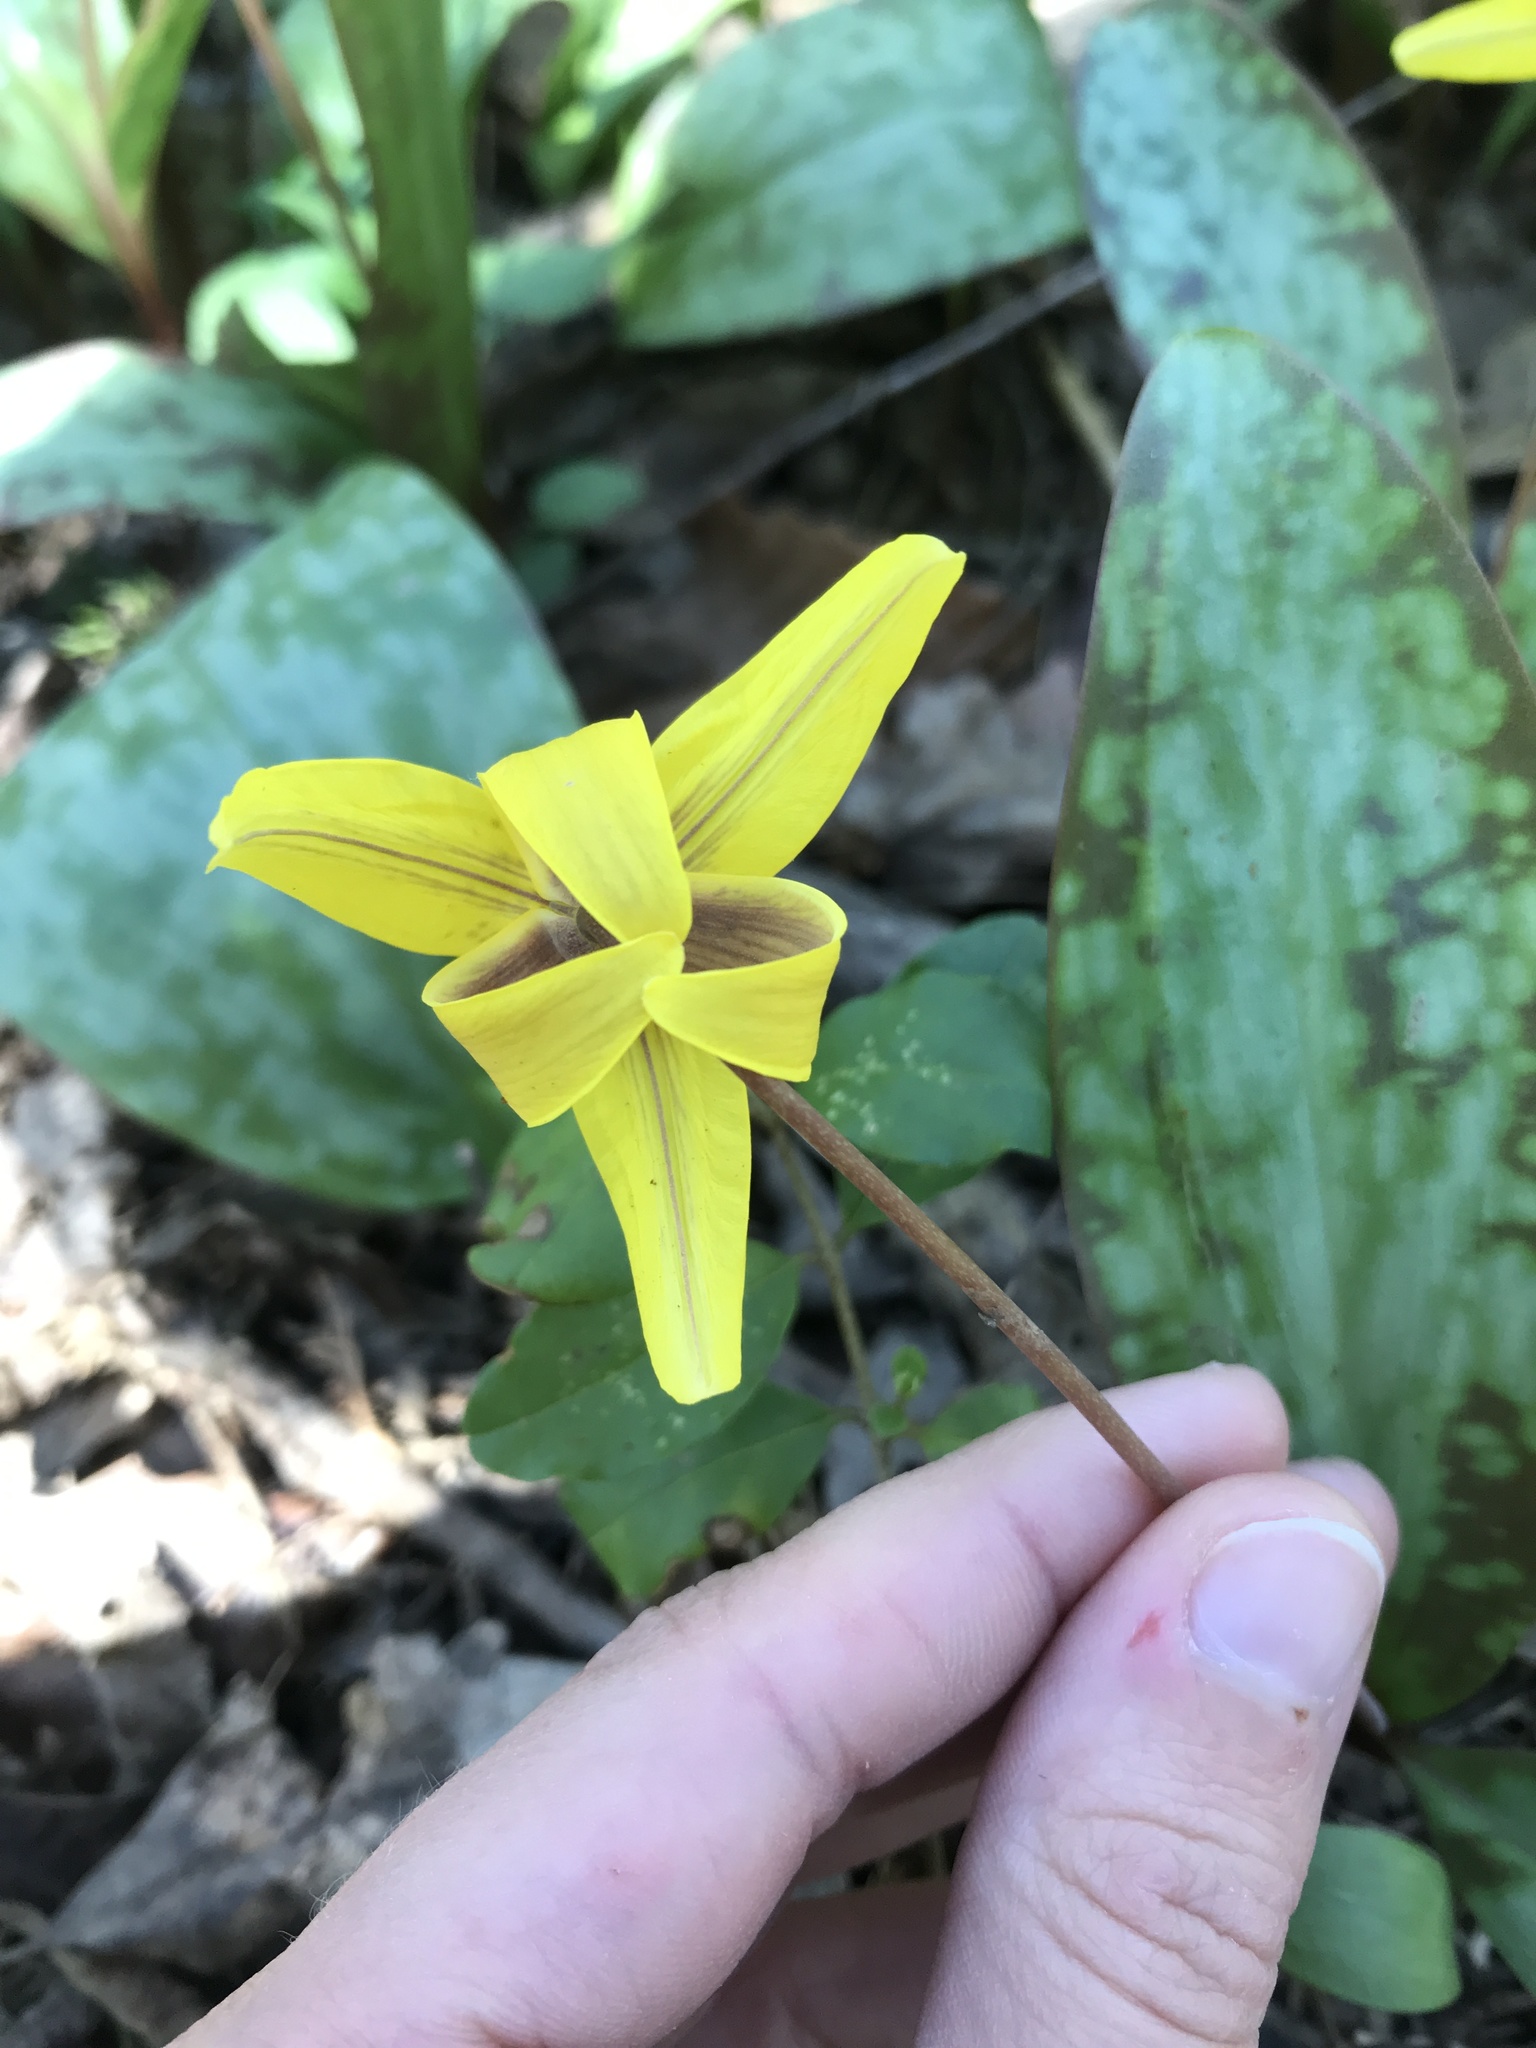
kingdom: Plantae
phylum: Tracheophyta
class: Liliopsida
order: Liliales
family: Liliaceae
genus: Erythronium
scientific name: Erythronium americanum
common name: Yellow adder's-tongue
